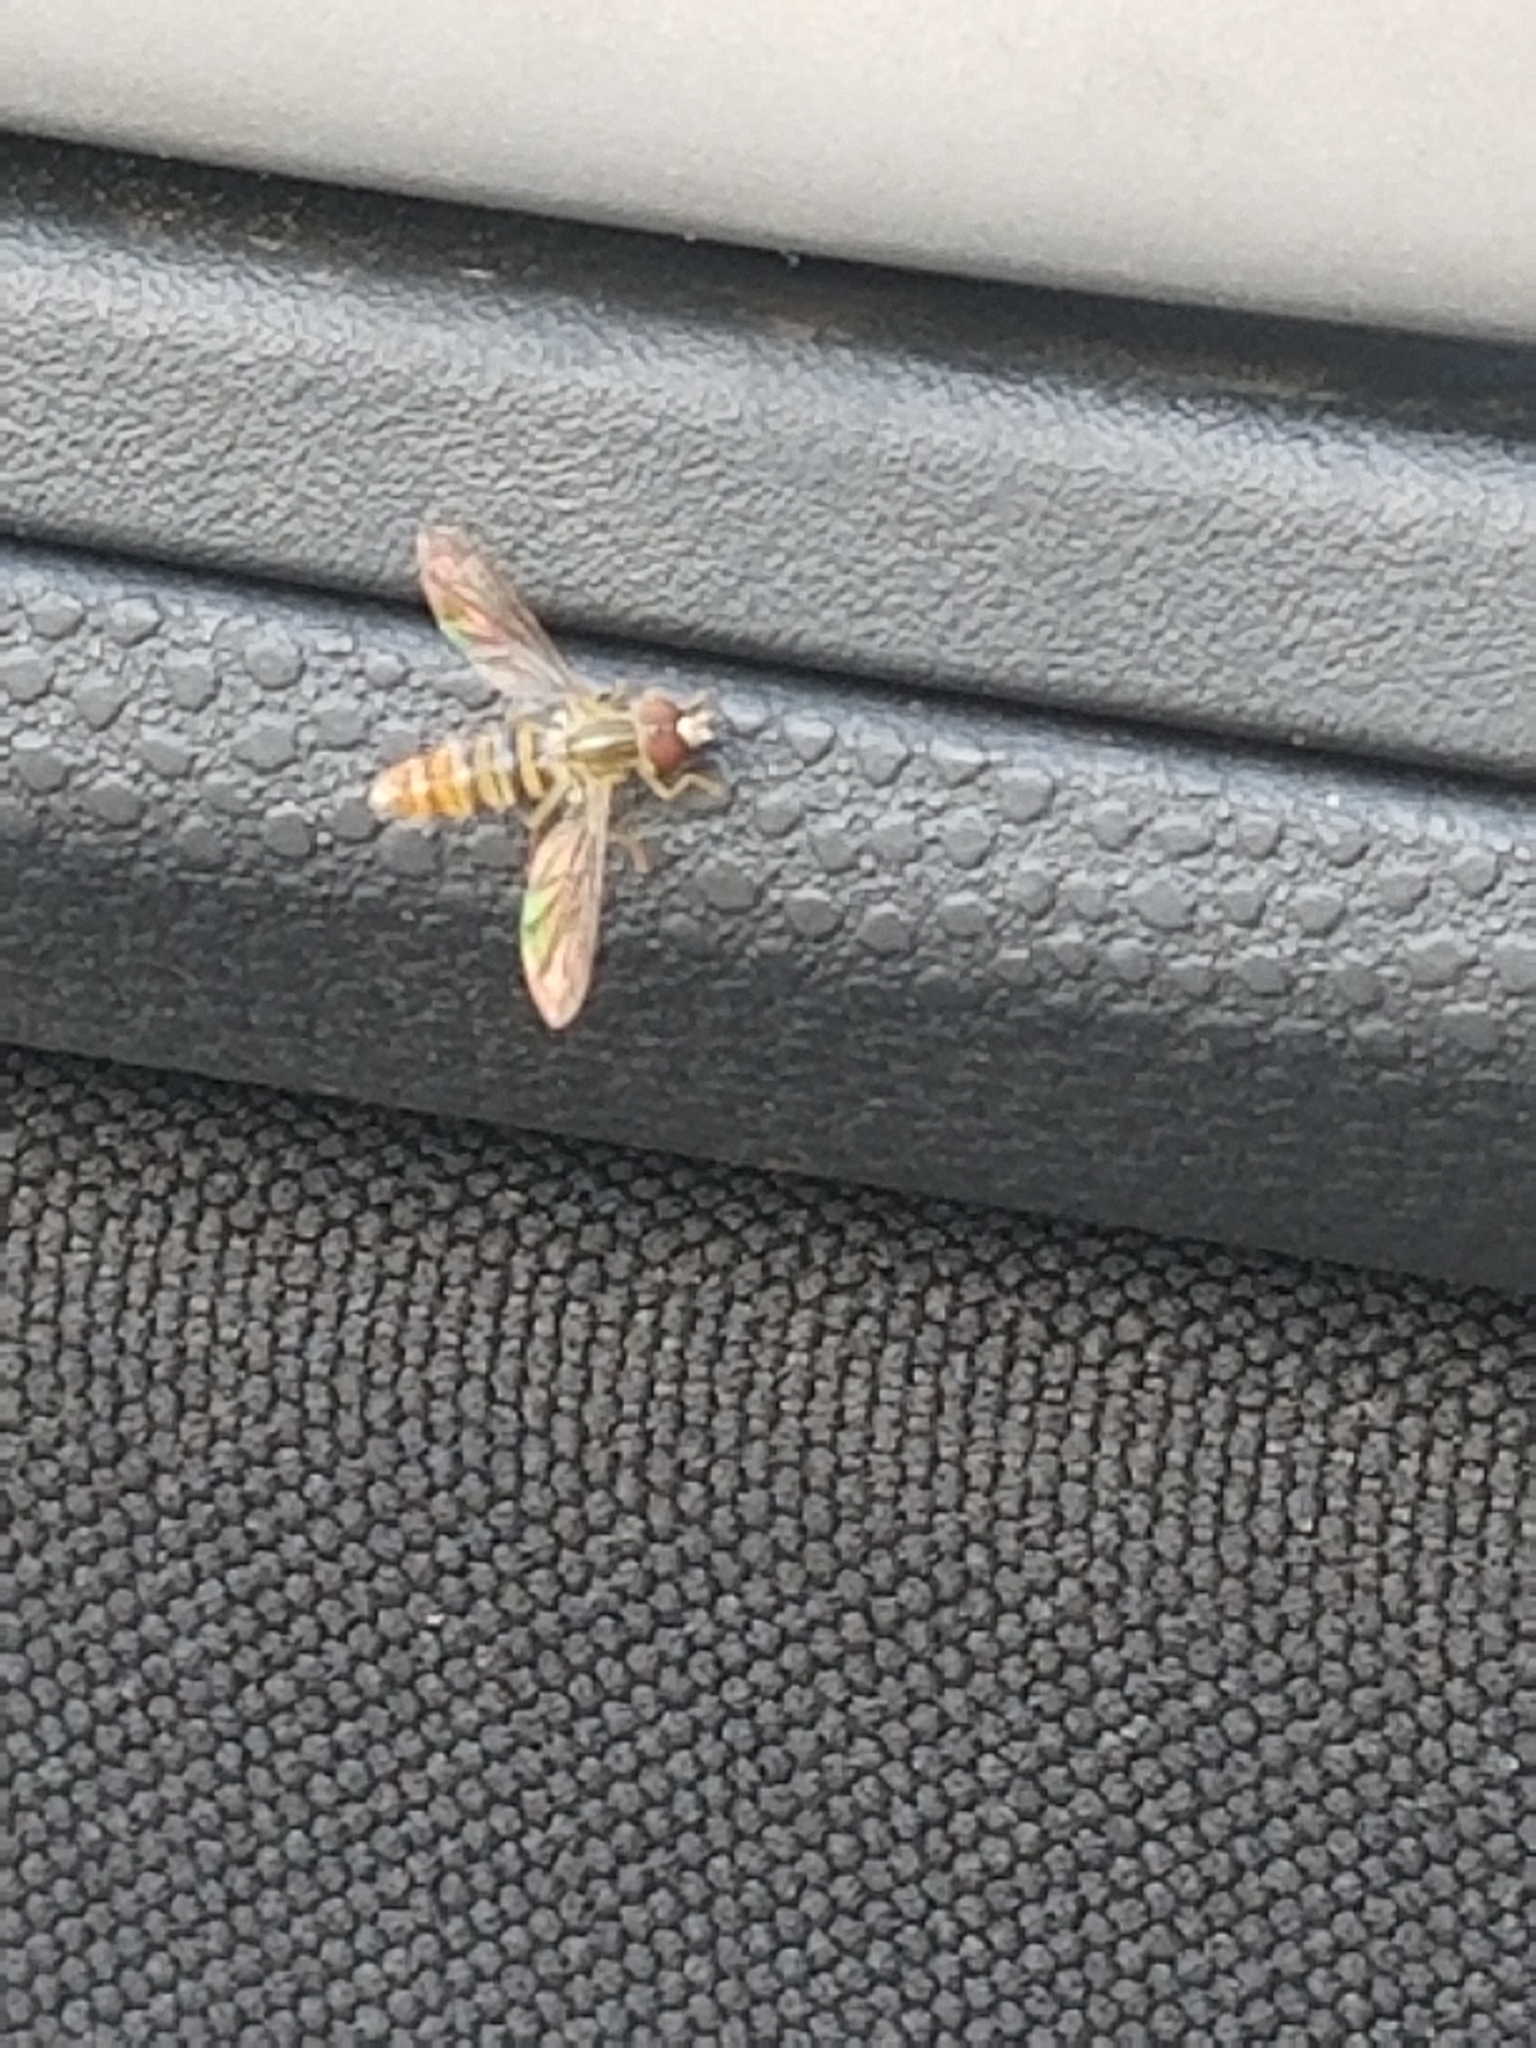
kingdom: Animalia
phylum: Arthropoda
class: Insecta
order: Diptera
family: Syrphidae
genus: Toxomerus
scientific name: Toxomerus politus
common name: Maize calligrapher
